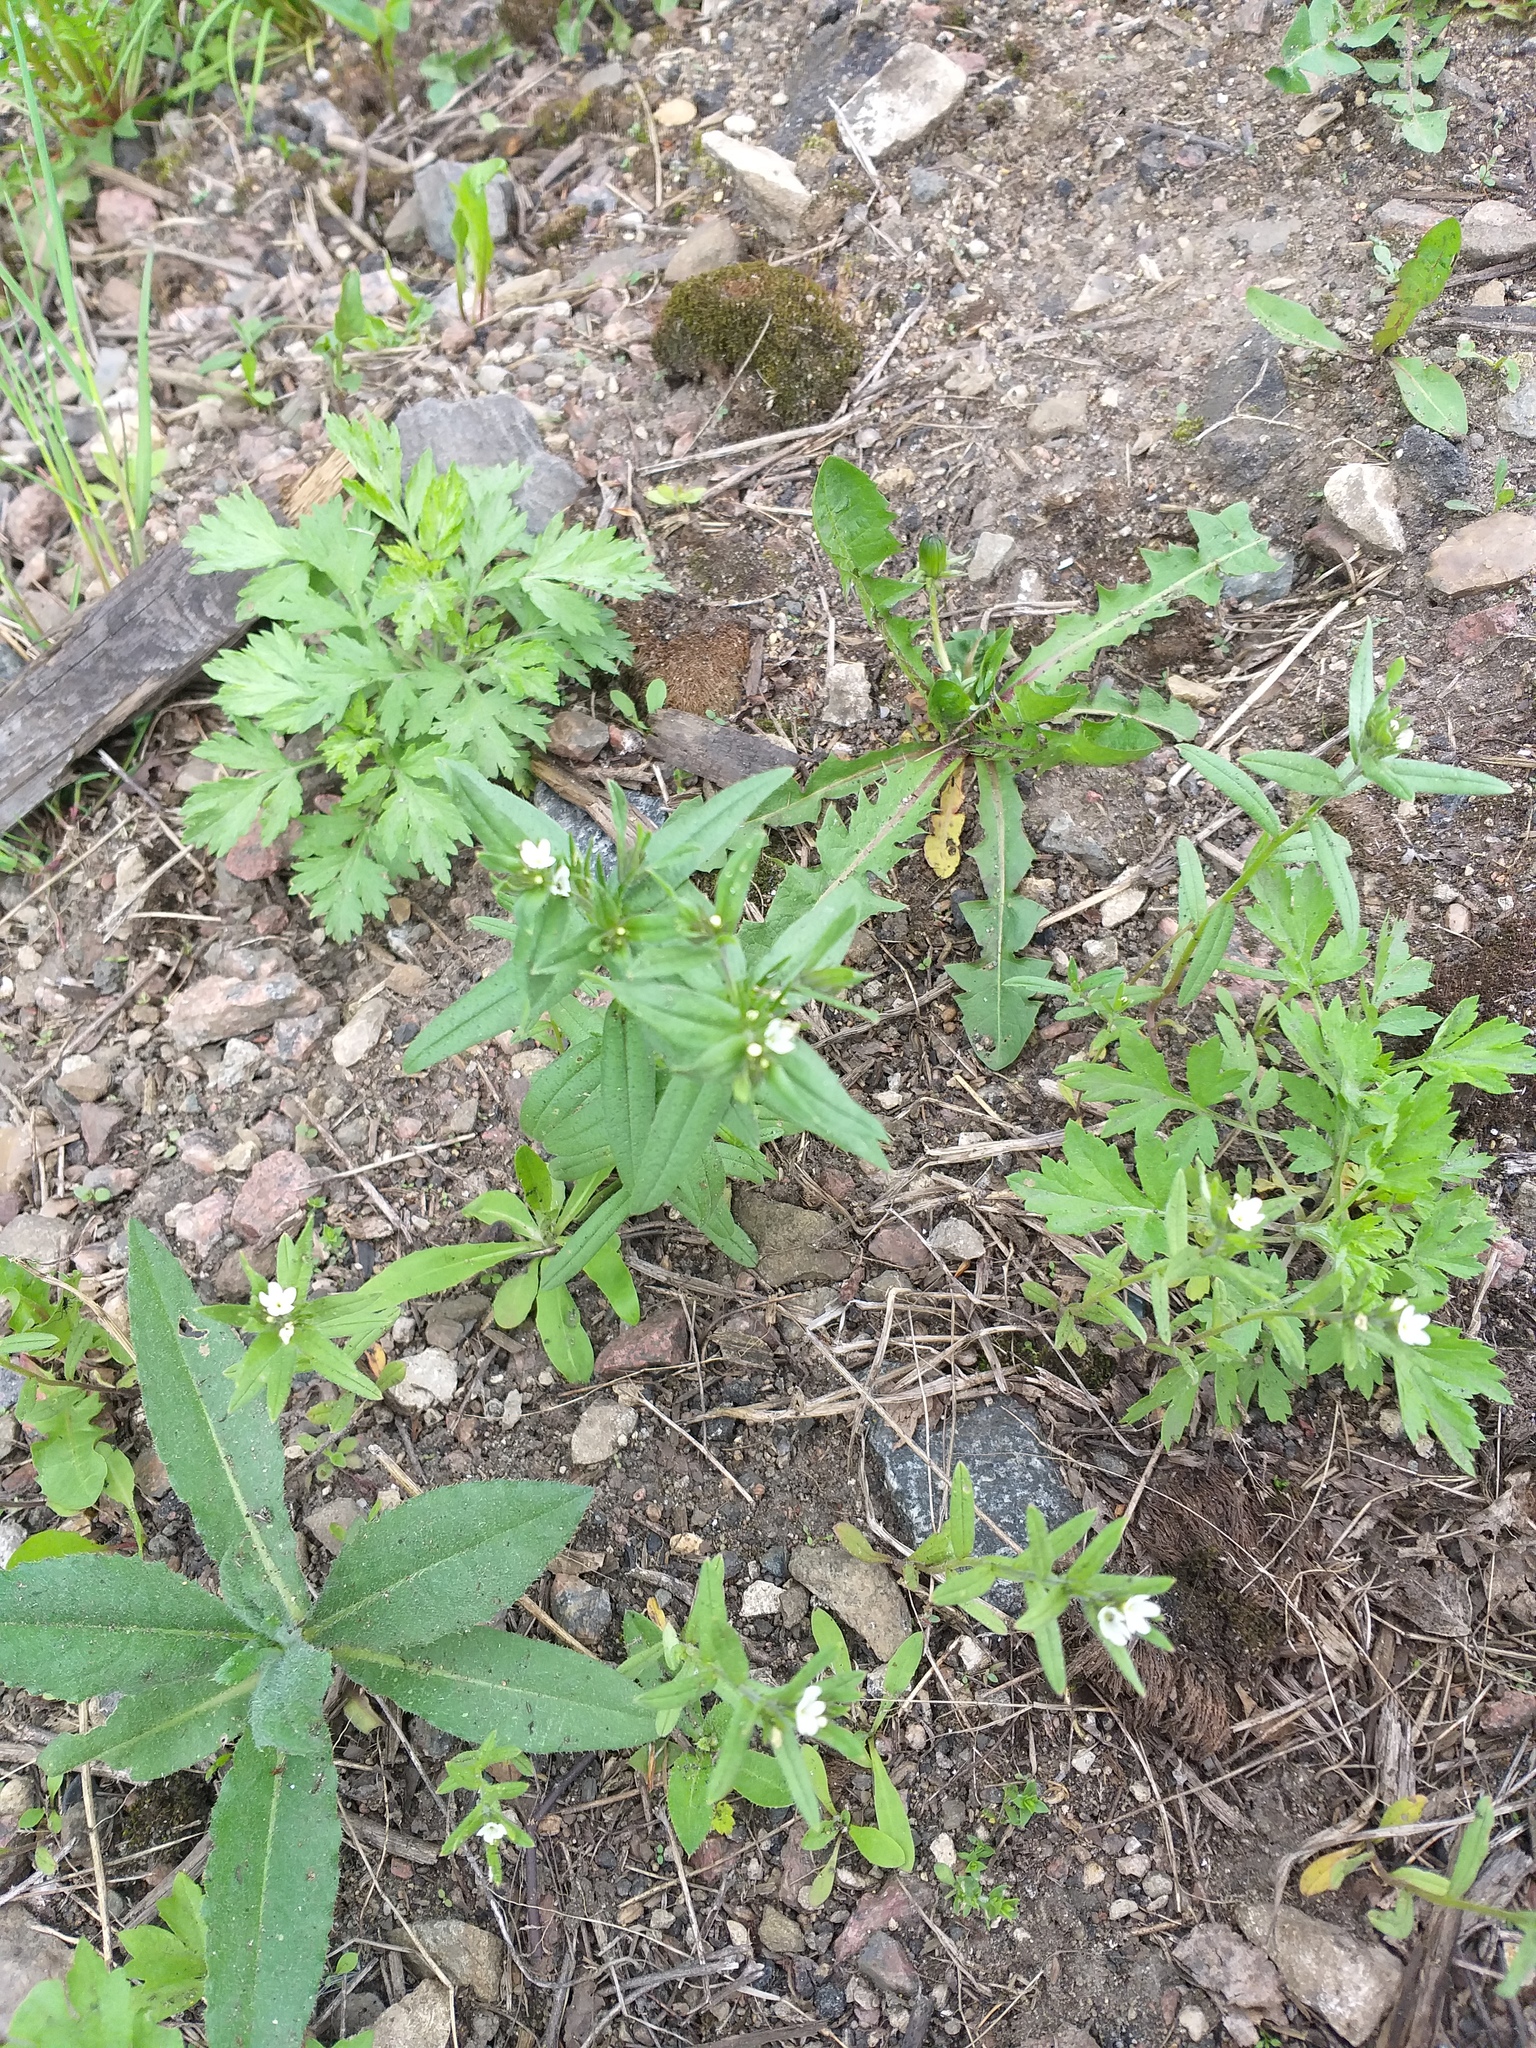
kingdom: Plantae
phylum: Tracheophyta
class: Magnoliopsida
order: Boraginales
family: Boraginaceae
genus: Buglossoides
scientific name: Buglossoides arvensis
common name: Corn gromwell
